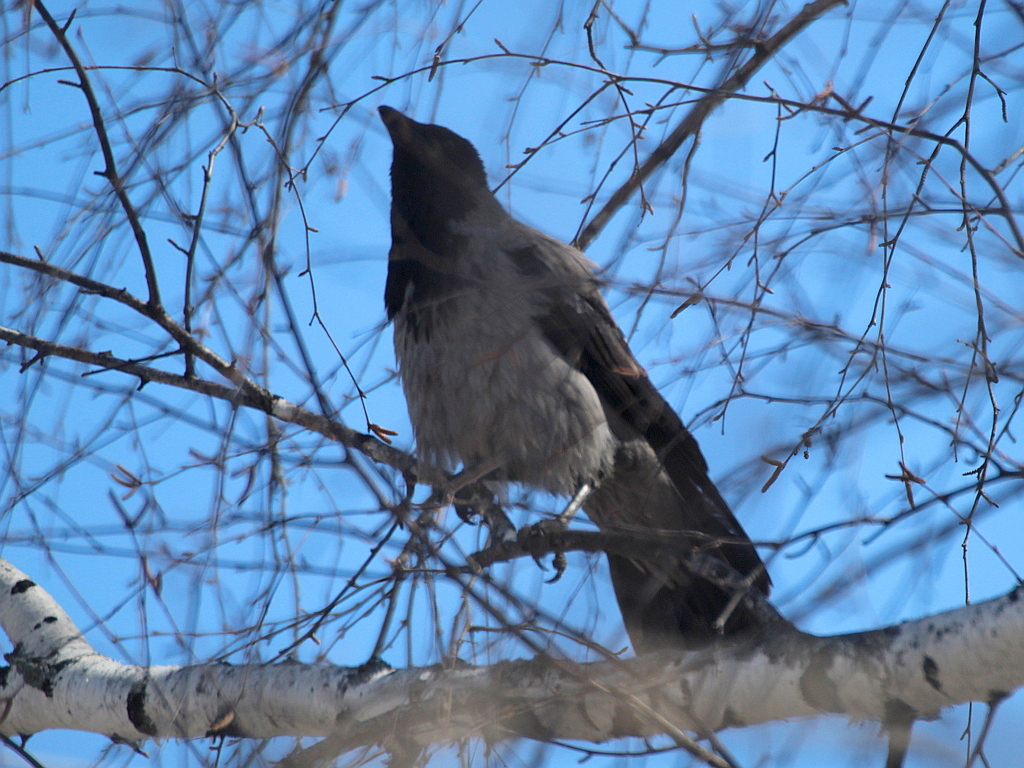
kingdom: Animalia
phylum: Chordata
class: Aves
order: Passeriformes
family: Corvidae
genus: Corvus
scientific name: Corvus cornix
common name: Hooded crow
